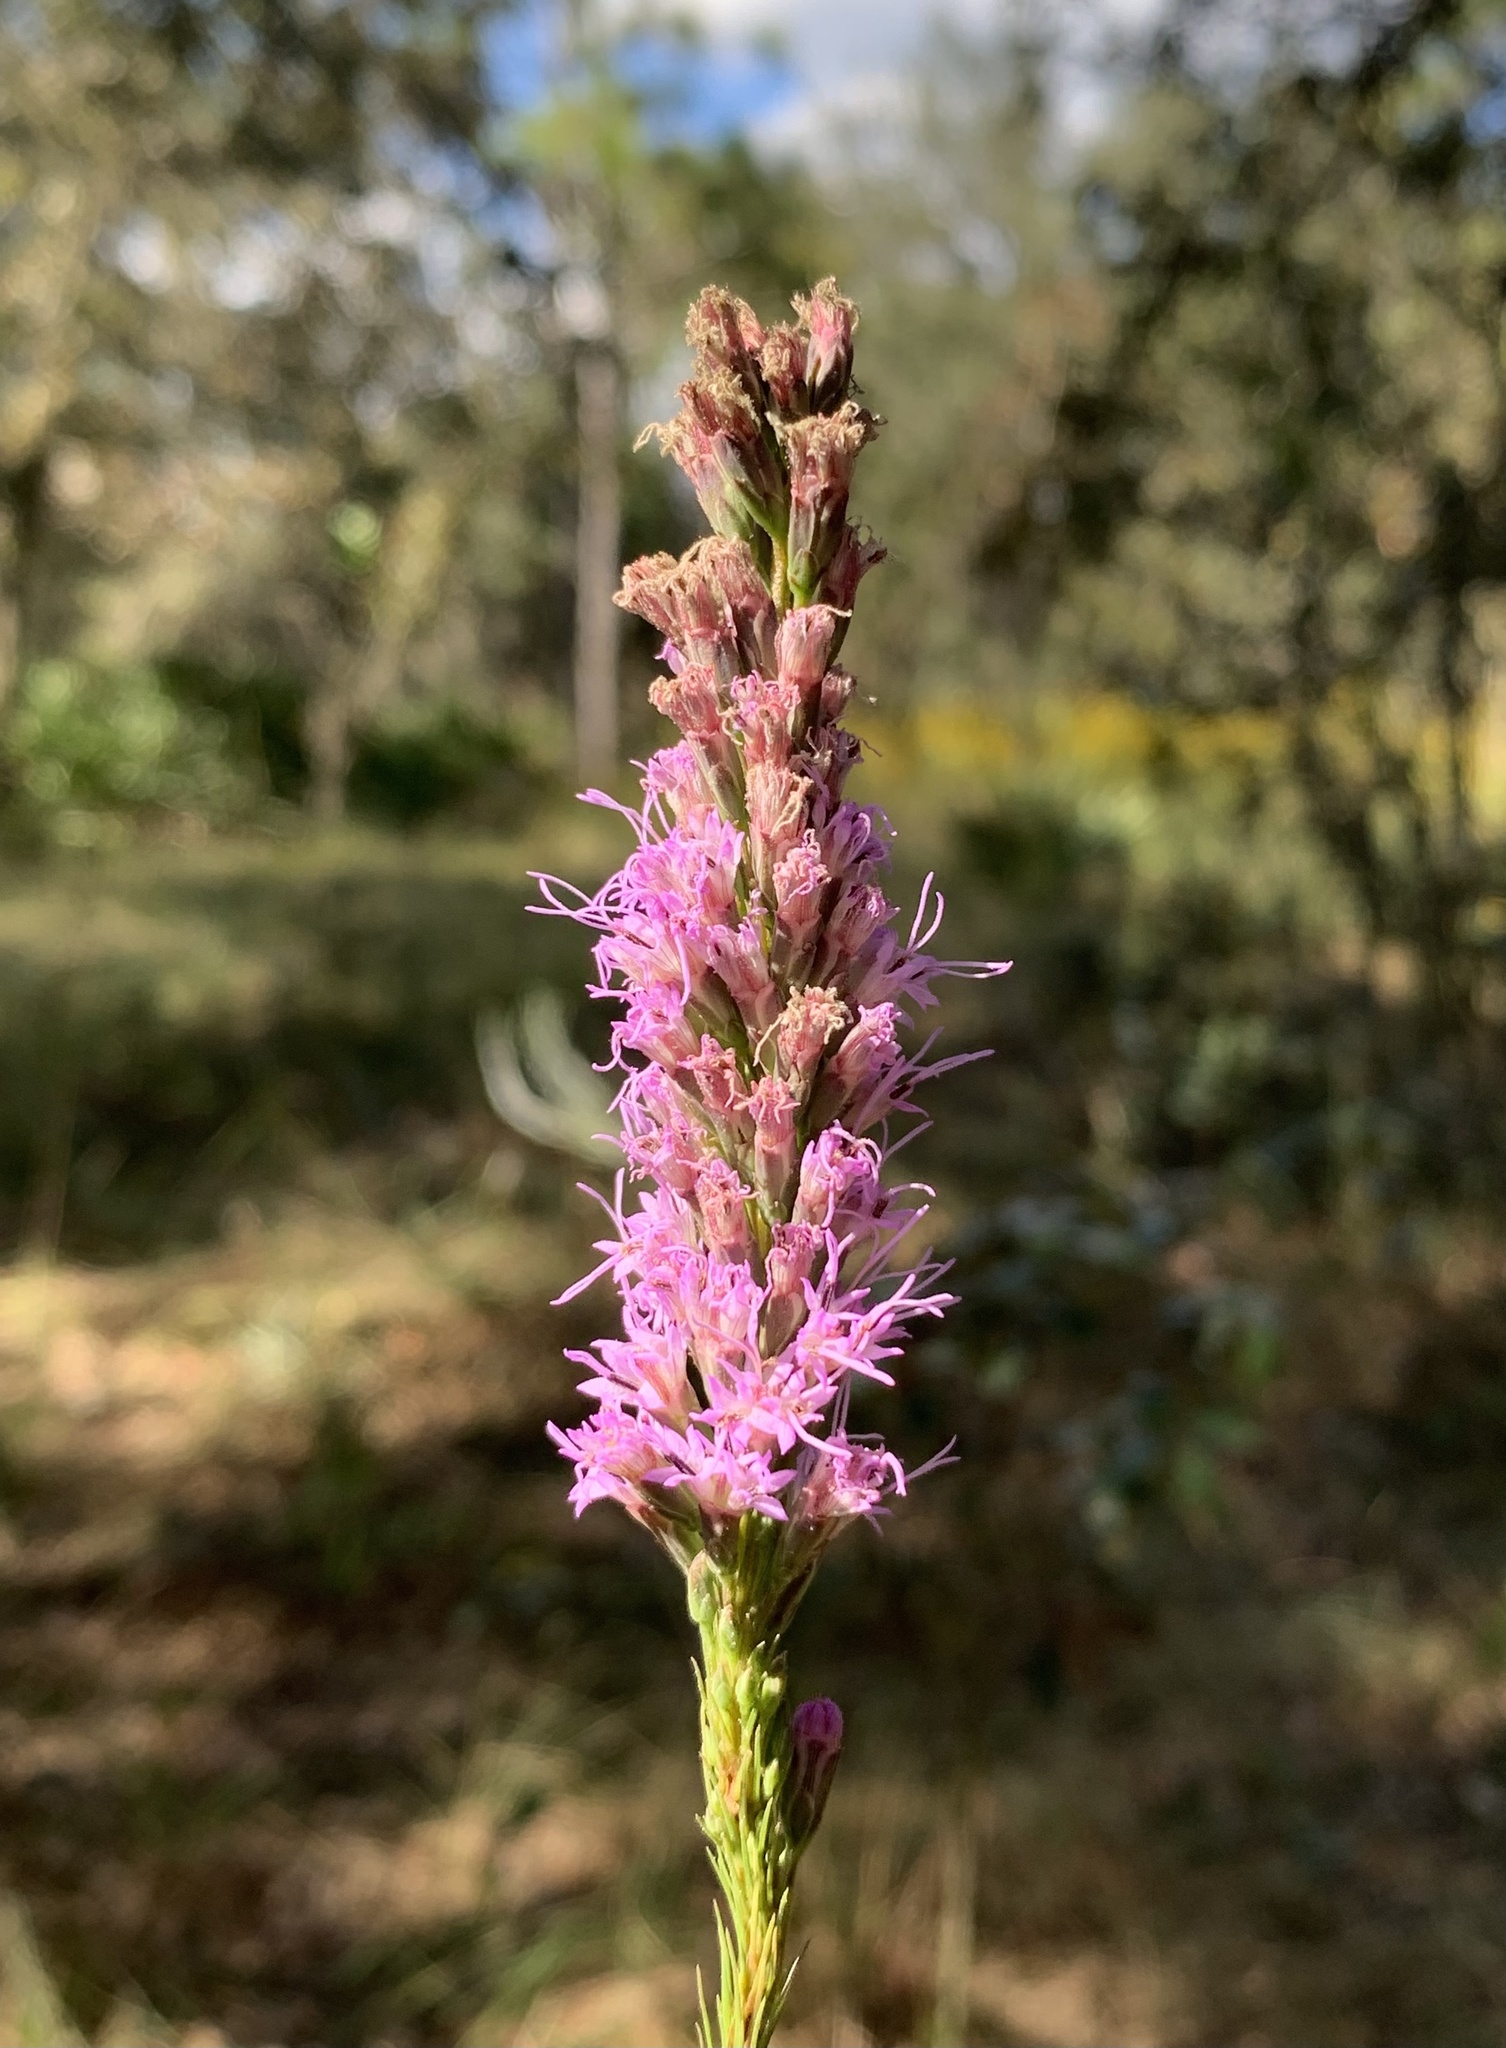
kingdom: Plantae
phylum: Tracheophyta
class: Magnoliopsida
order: Asterales
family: Asteraceae
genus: Liatris
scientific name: Liatris tenuifolia
